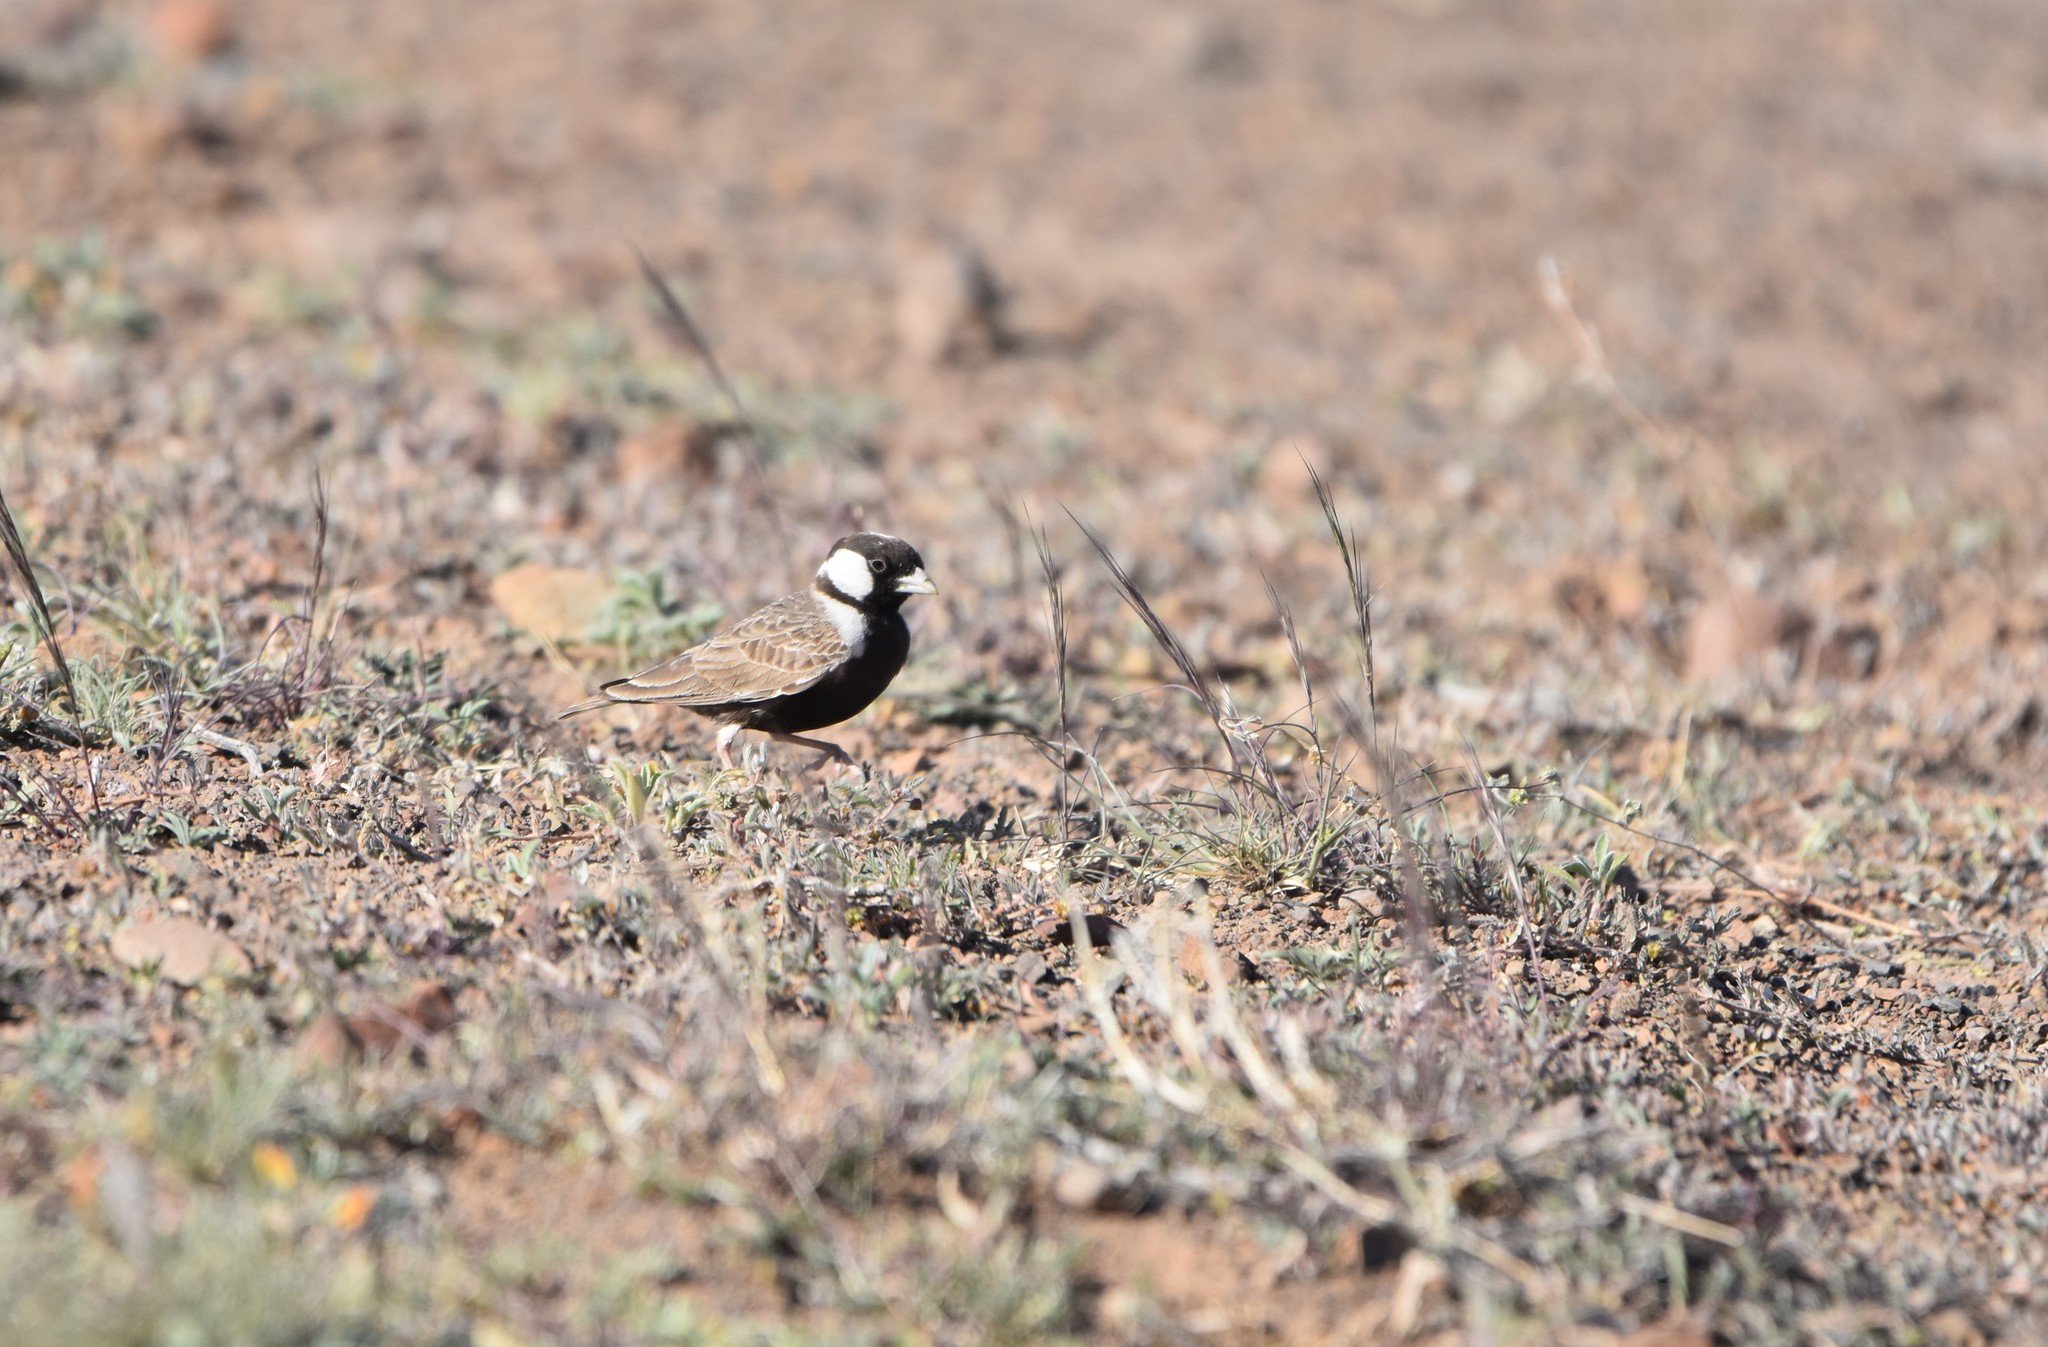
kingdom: Animalia
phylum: Chordata
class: Aves
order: Passeriformes
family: Alaudidae
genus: Eremopterix
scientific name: Eremopterix verticalis
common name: Grey-backed sparrow-lark
